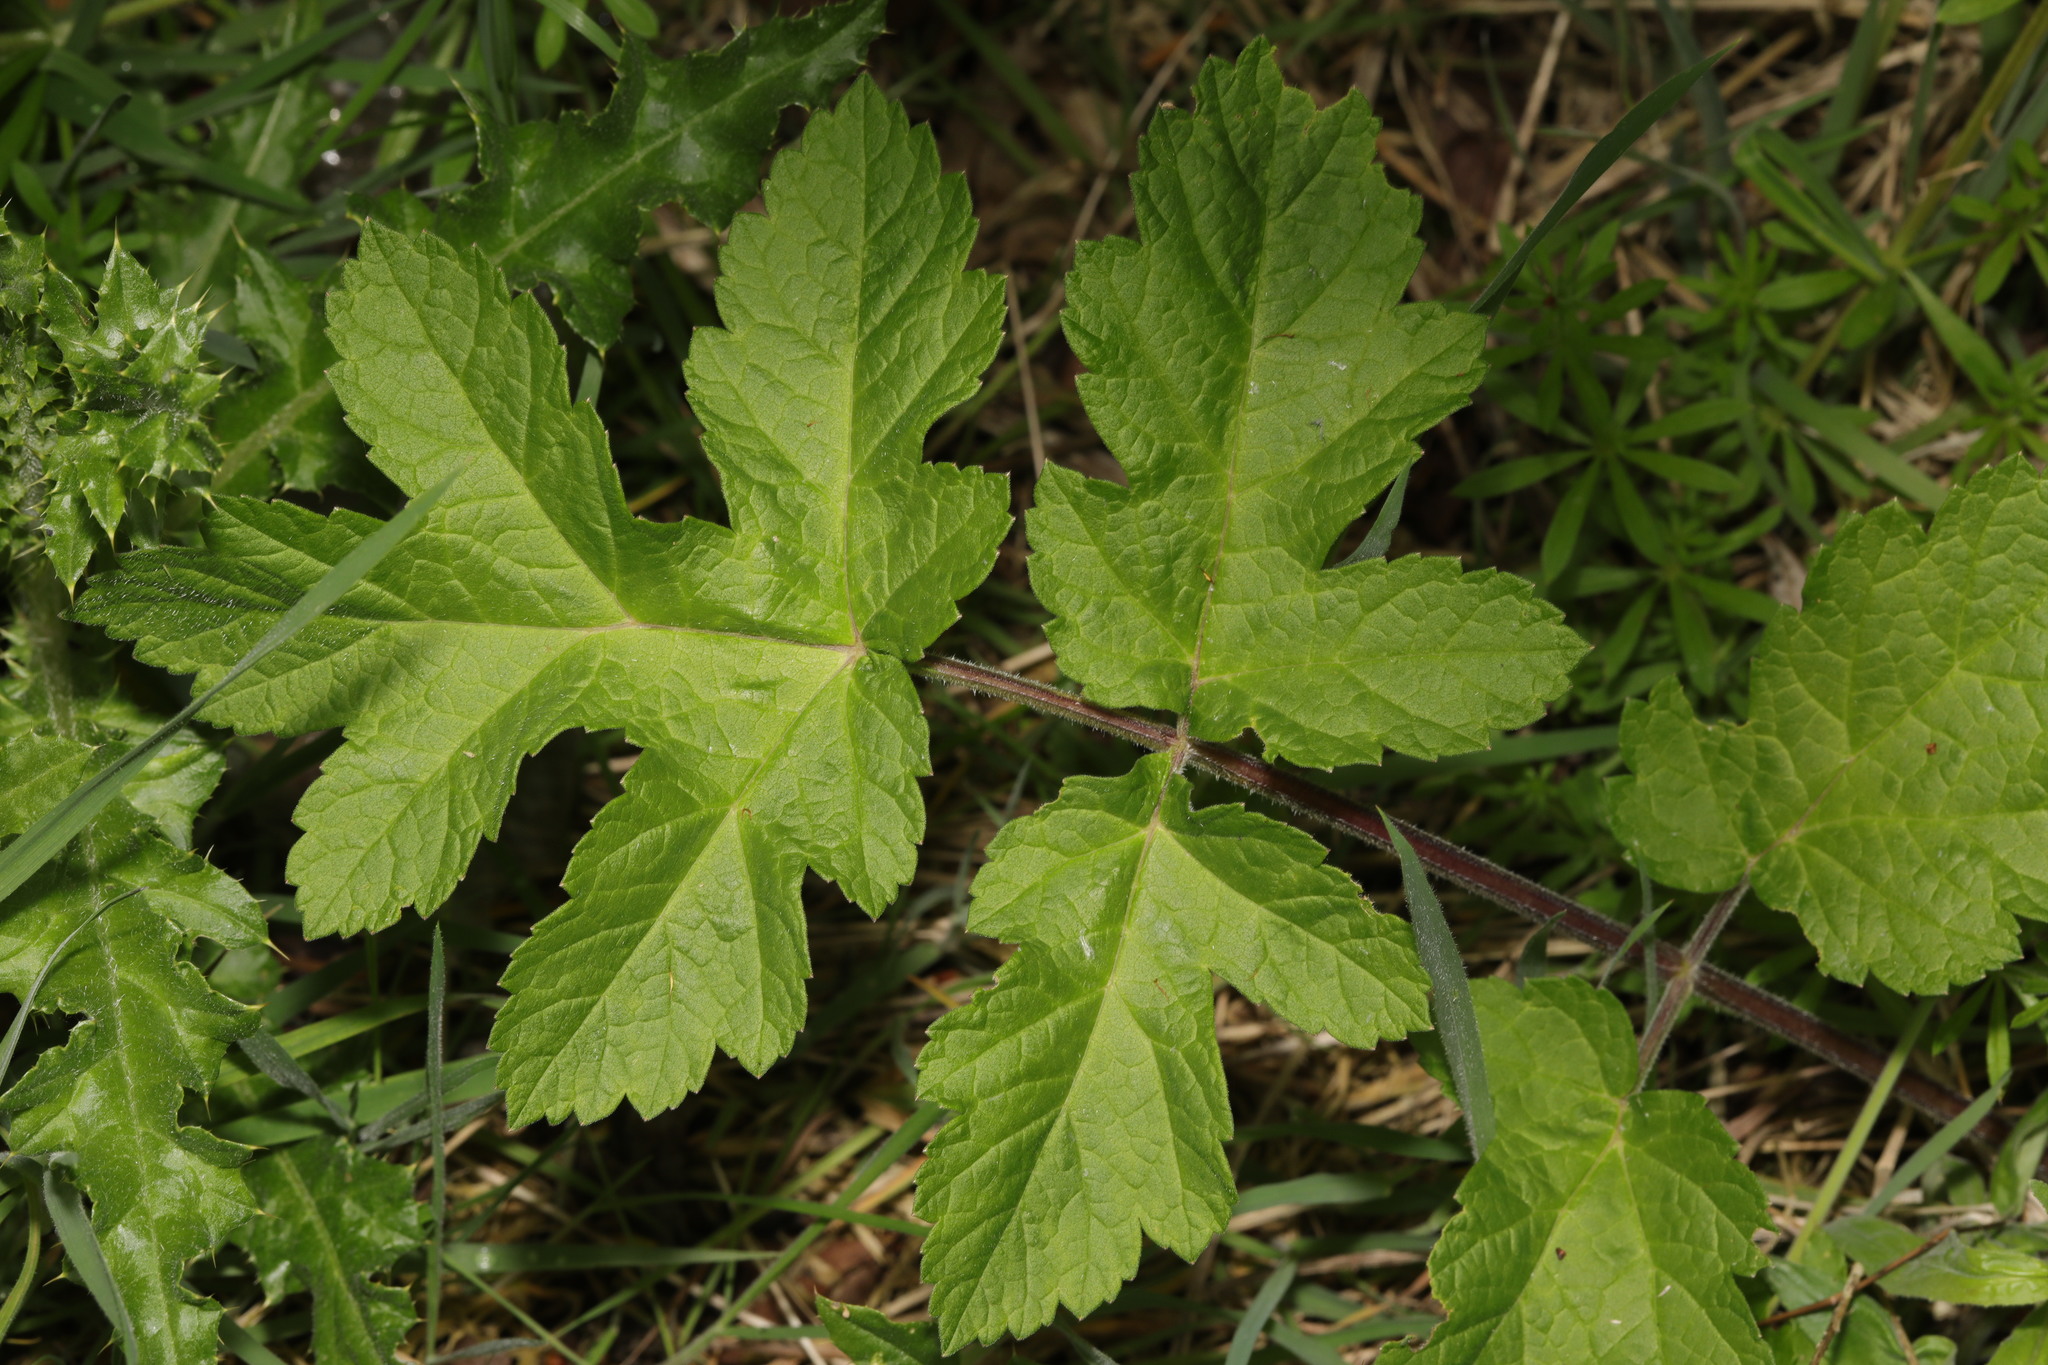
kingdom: Plantae
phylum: Tracheophyta
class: Magnoliopsida
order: Apiales
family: Apiaceae
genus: Heracleum
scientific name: Heracleum sphondylium
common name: Hogweed
